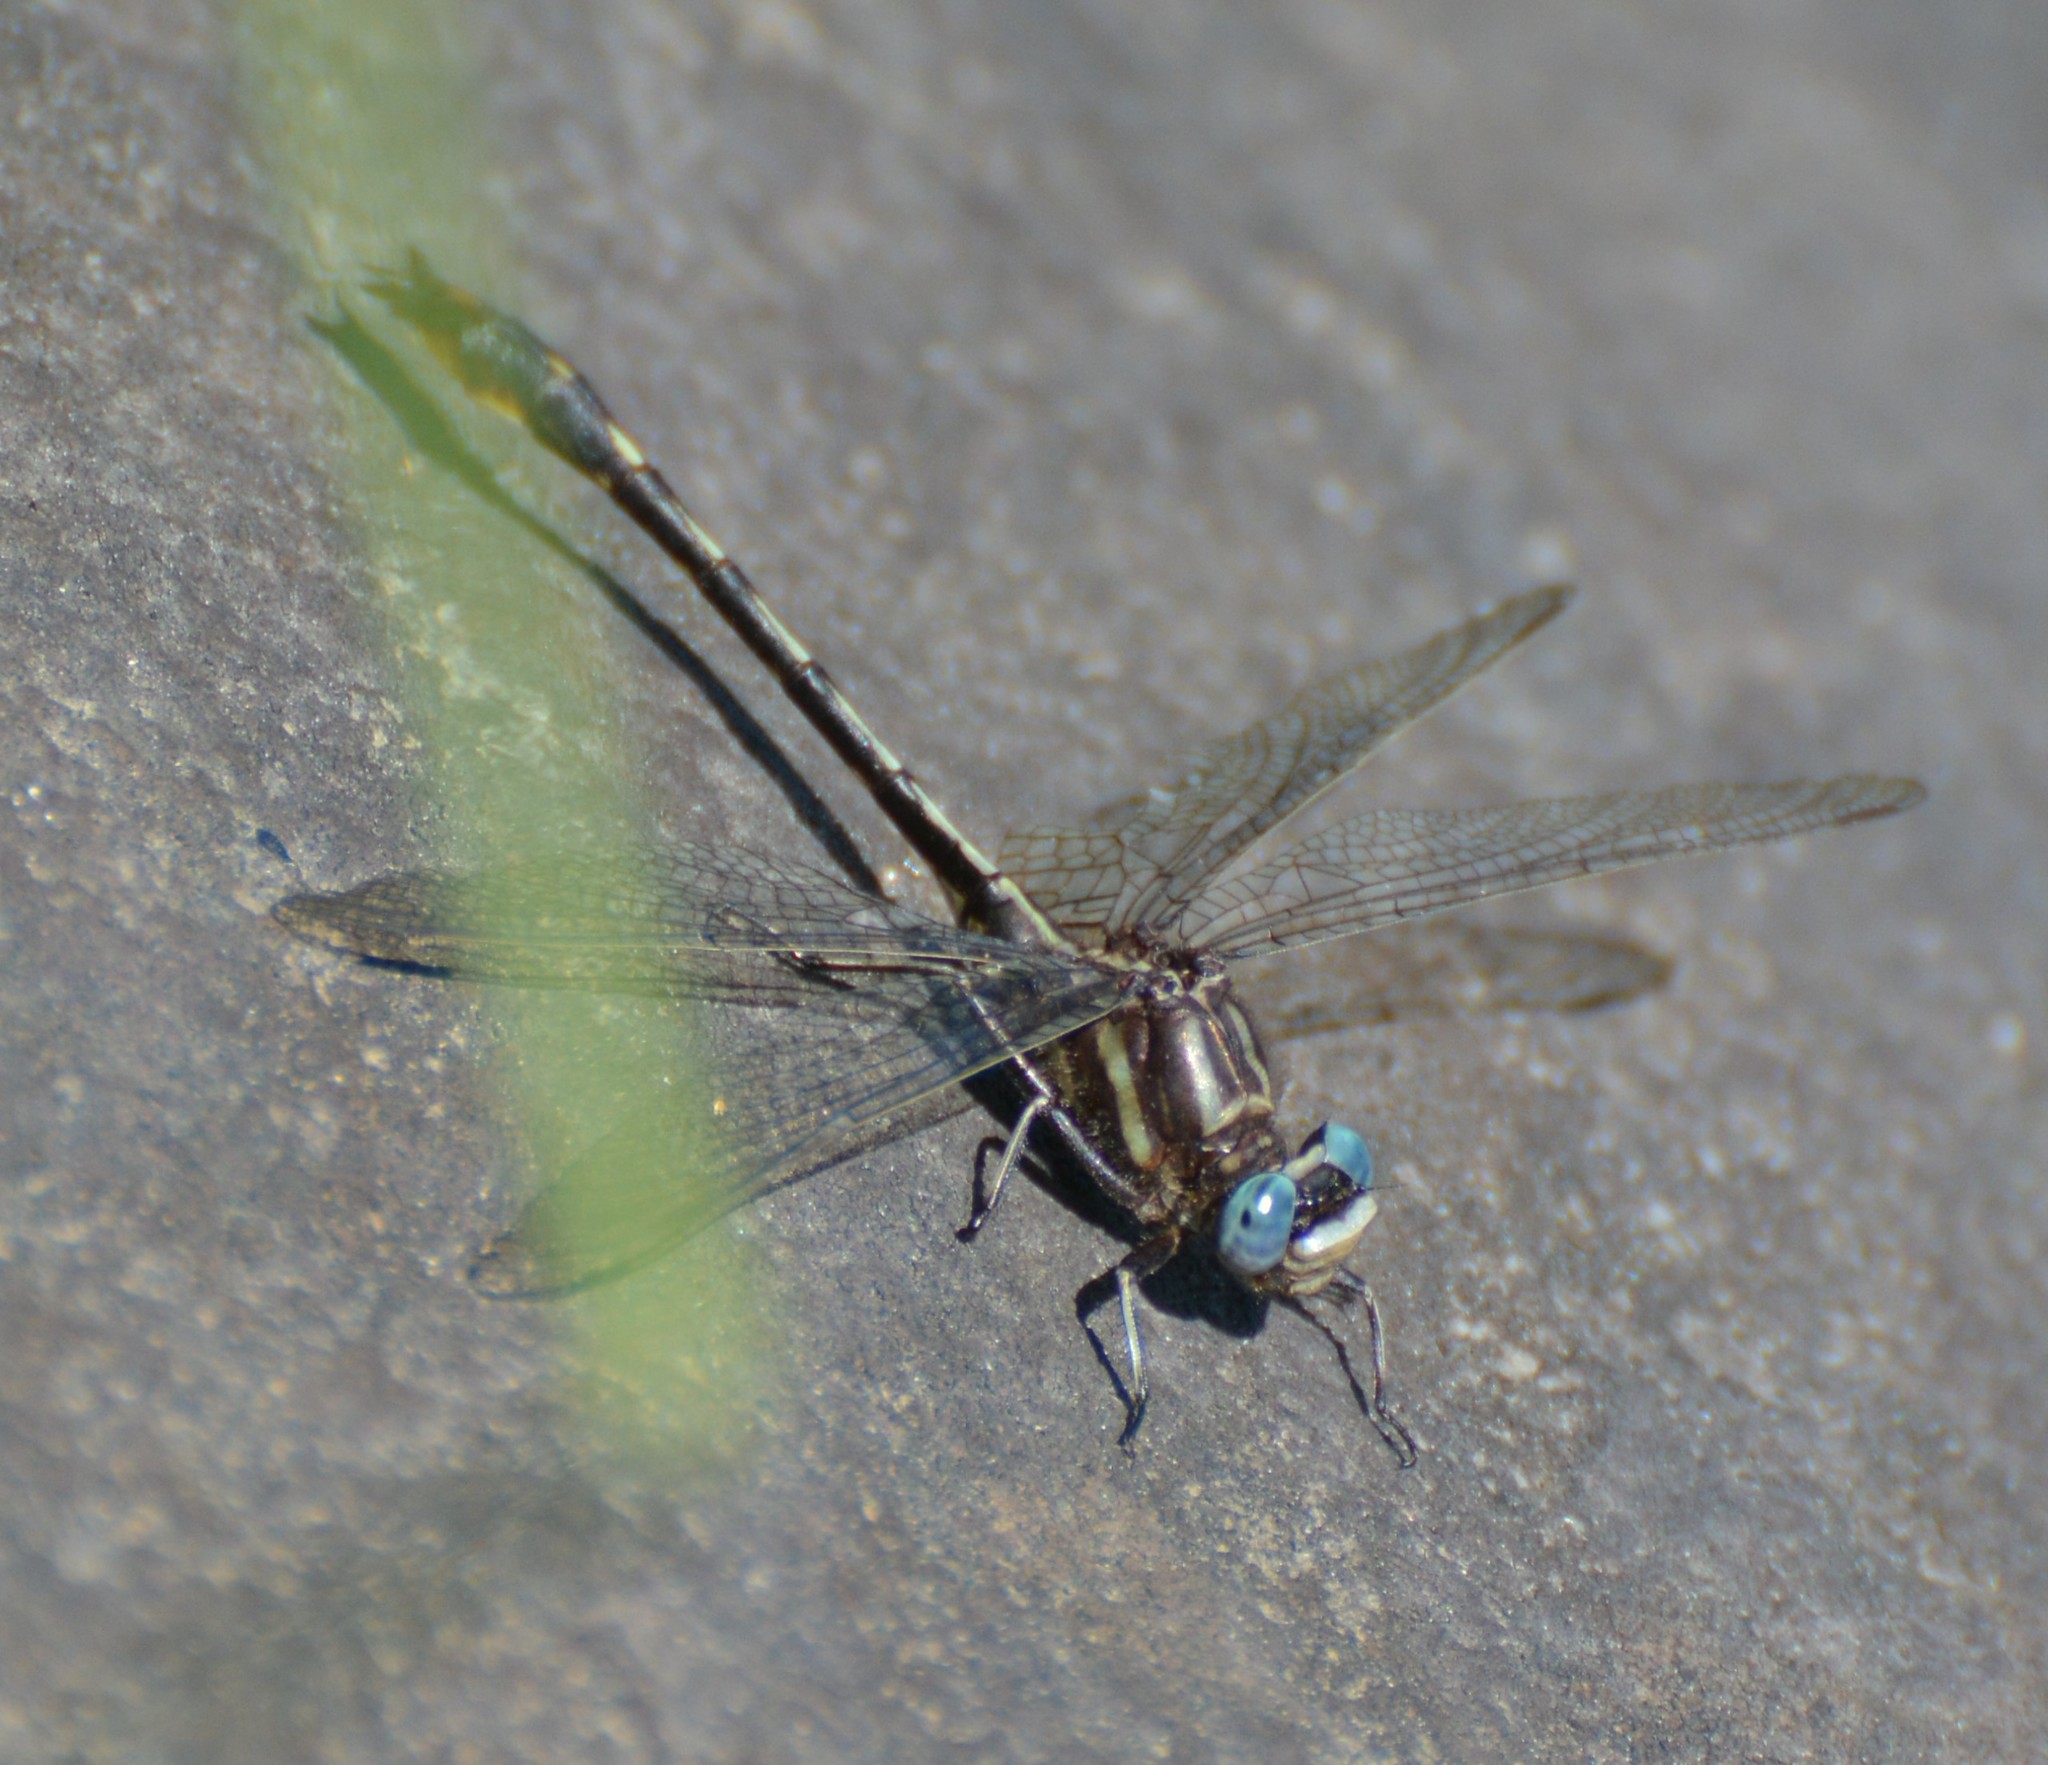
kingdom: Animalia
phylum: Arthropoda
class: Insecta
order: Odonata
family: Gomphidae
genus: Phanogomphus
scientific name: Phanogomphus exilis
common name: Lancet clubtail
